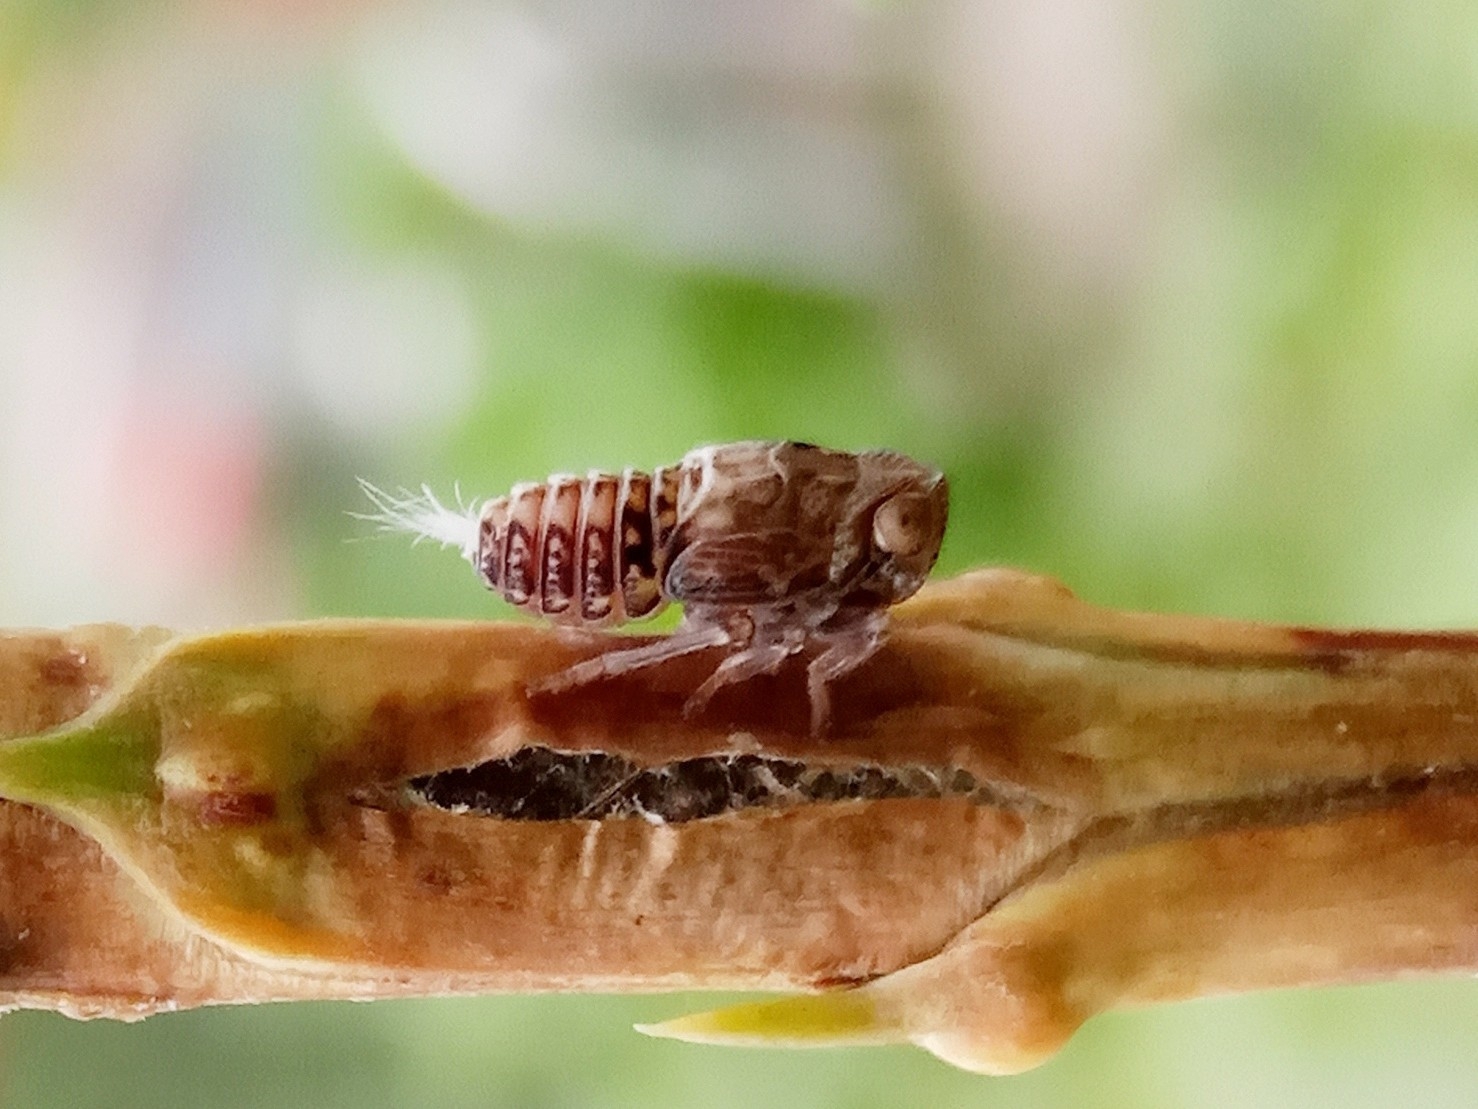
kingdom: Animalia
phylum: Arthropoda
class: Insecta
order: Hemiptera
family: Issidae
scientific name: Issidae
